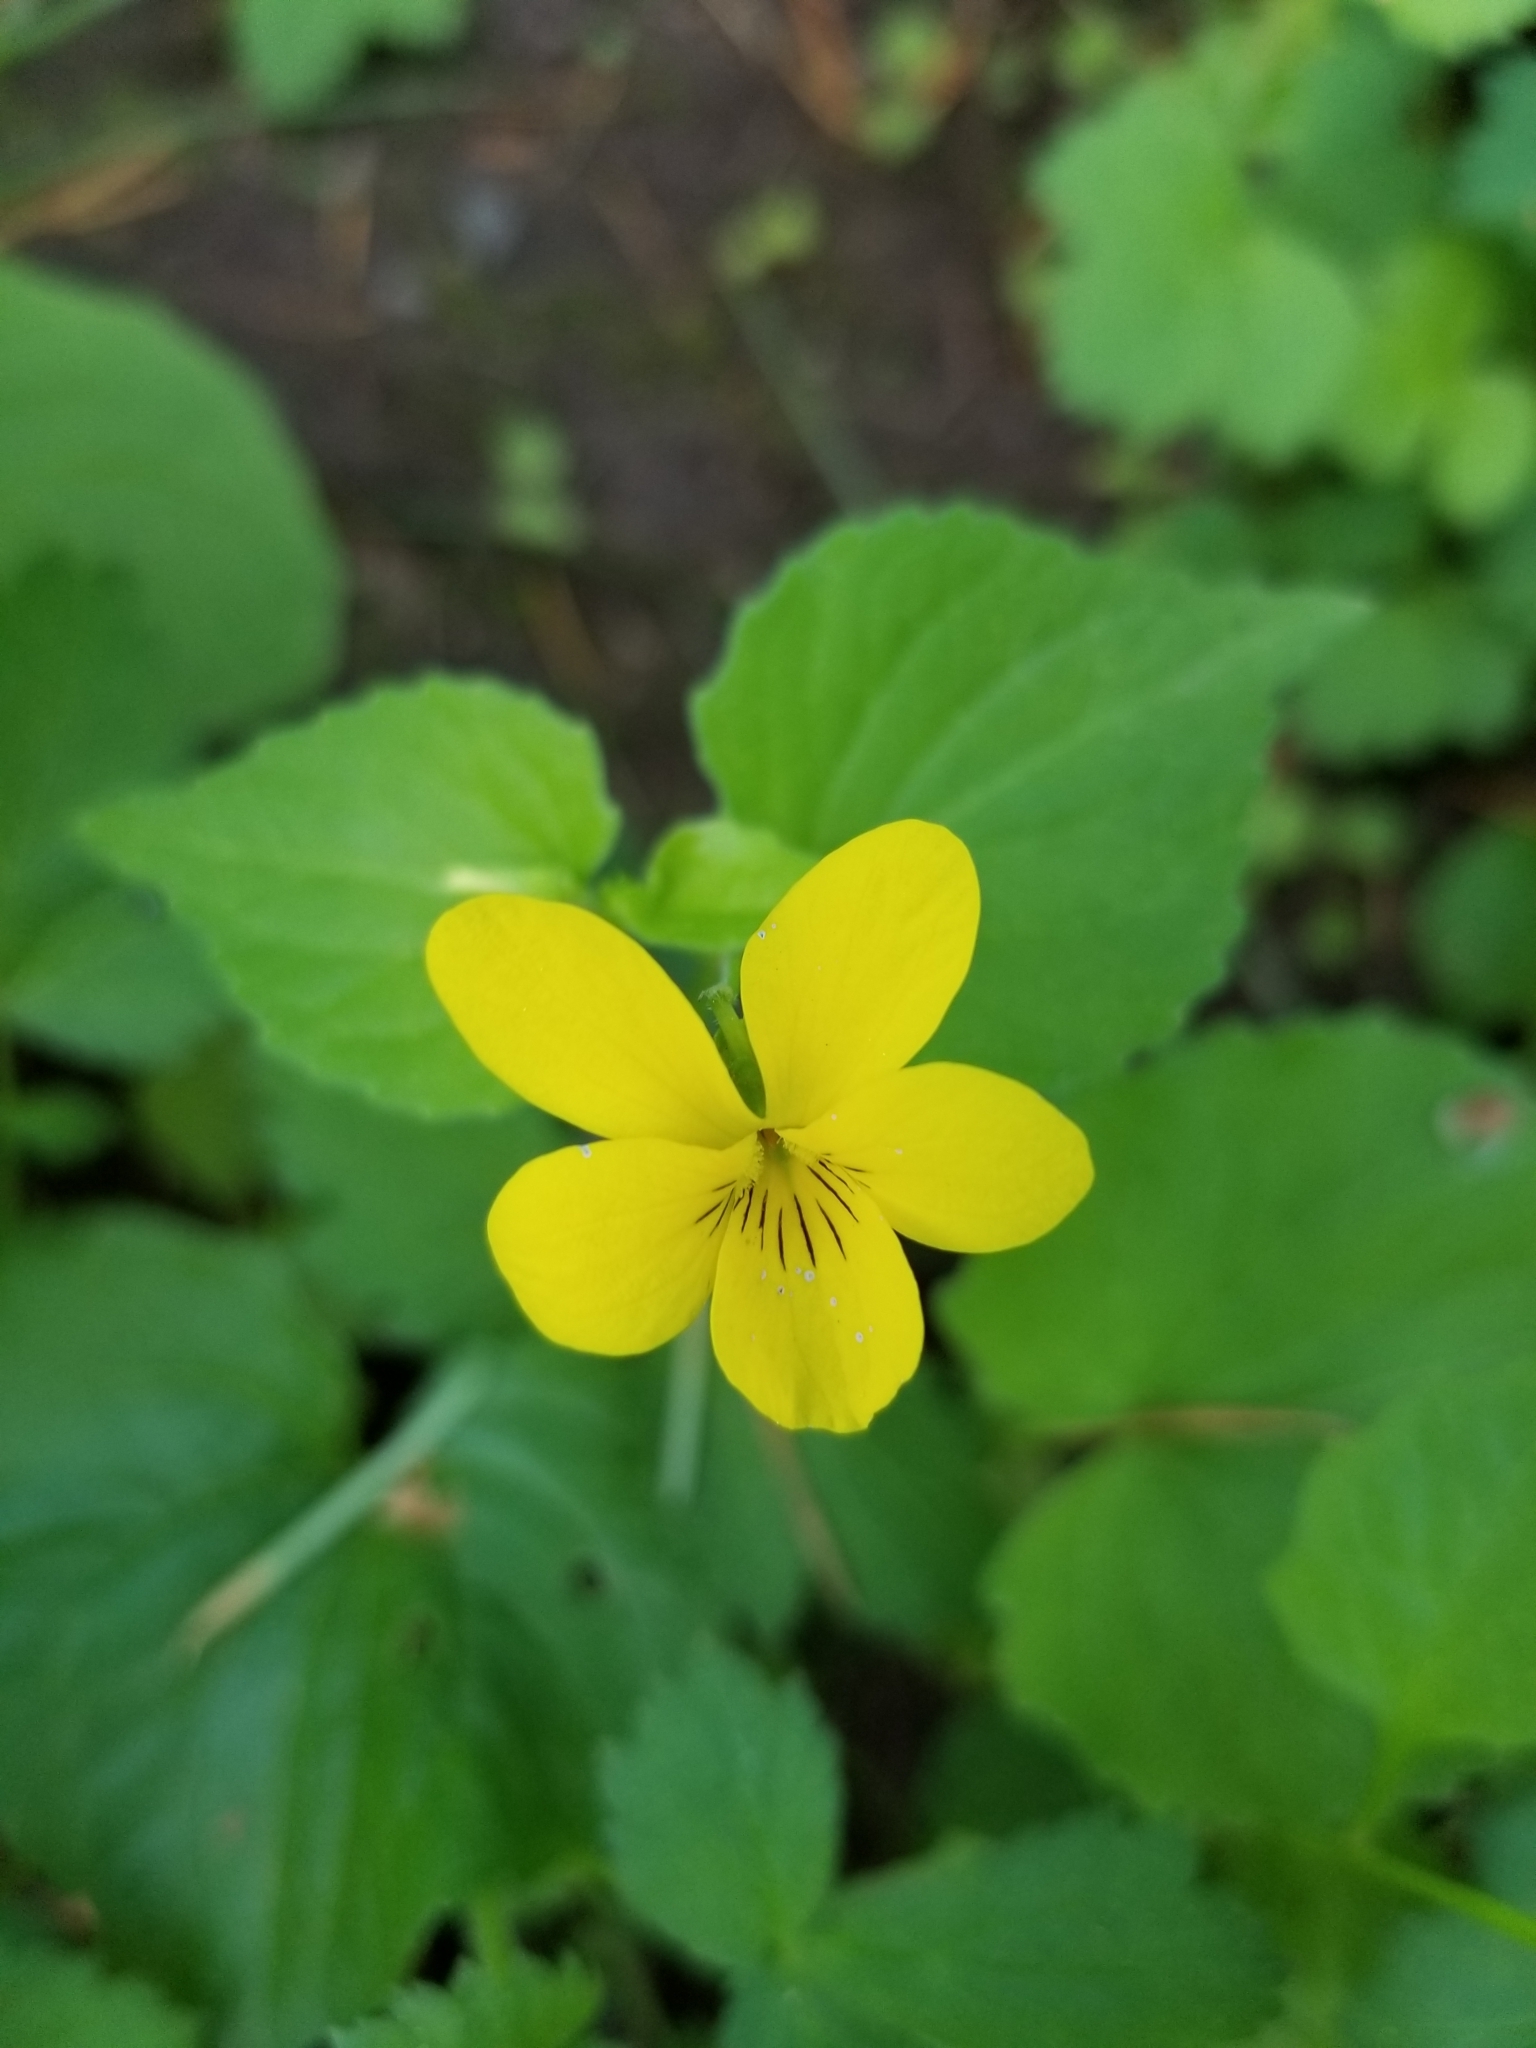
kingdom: Plantae
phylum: Tracheophyta
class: Magnoliopsida
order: Malpighiales
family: Violaceae
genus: Viola
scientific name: Viola glabella
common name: Stream violet
